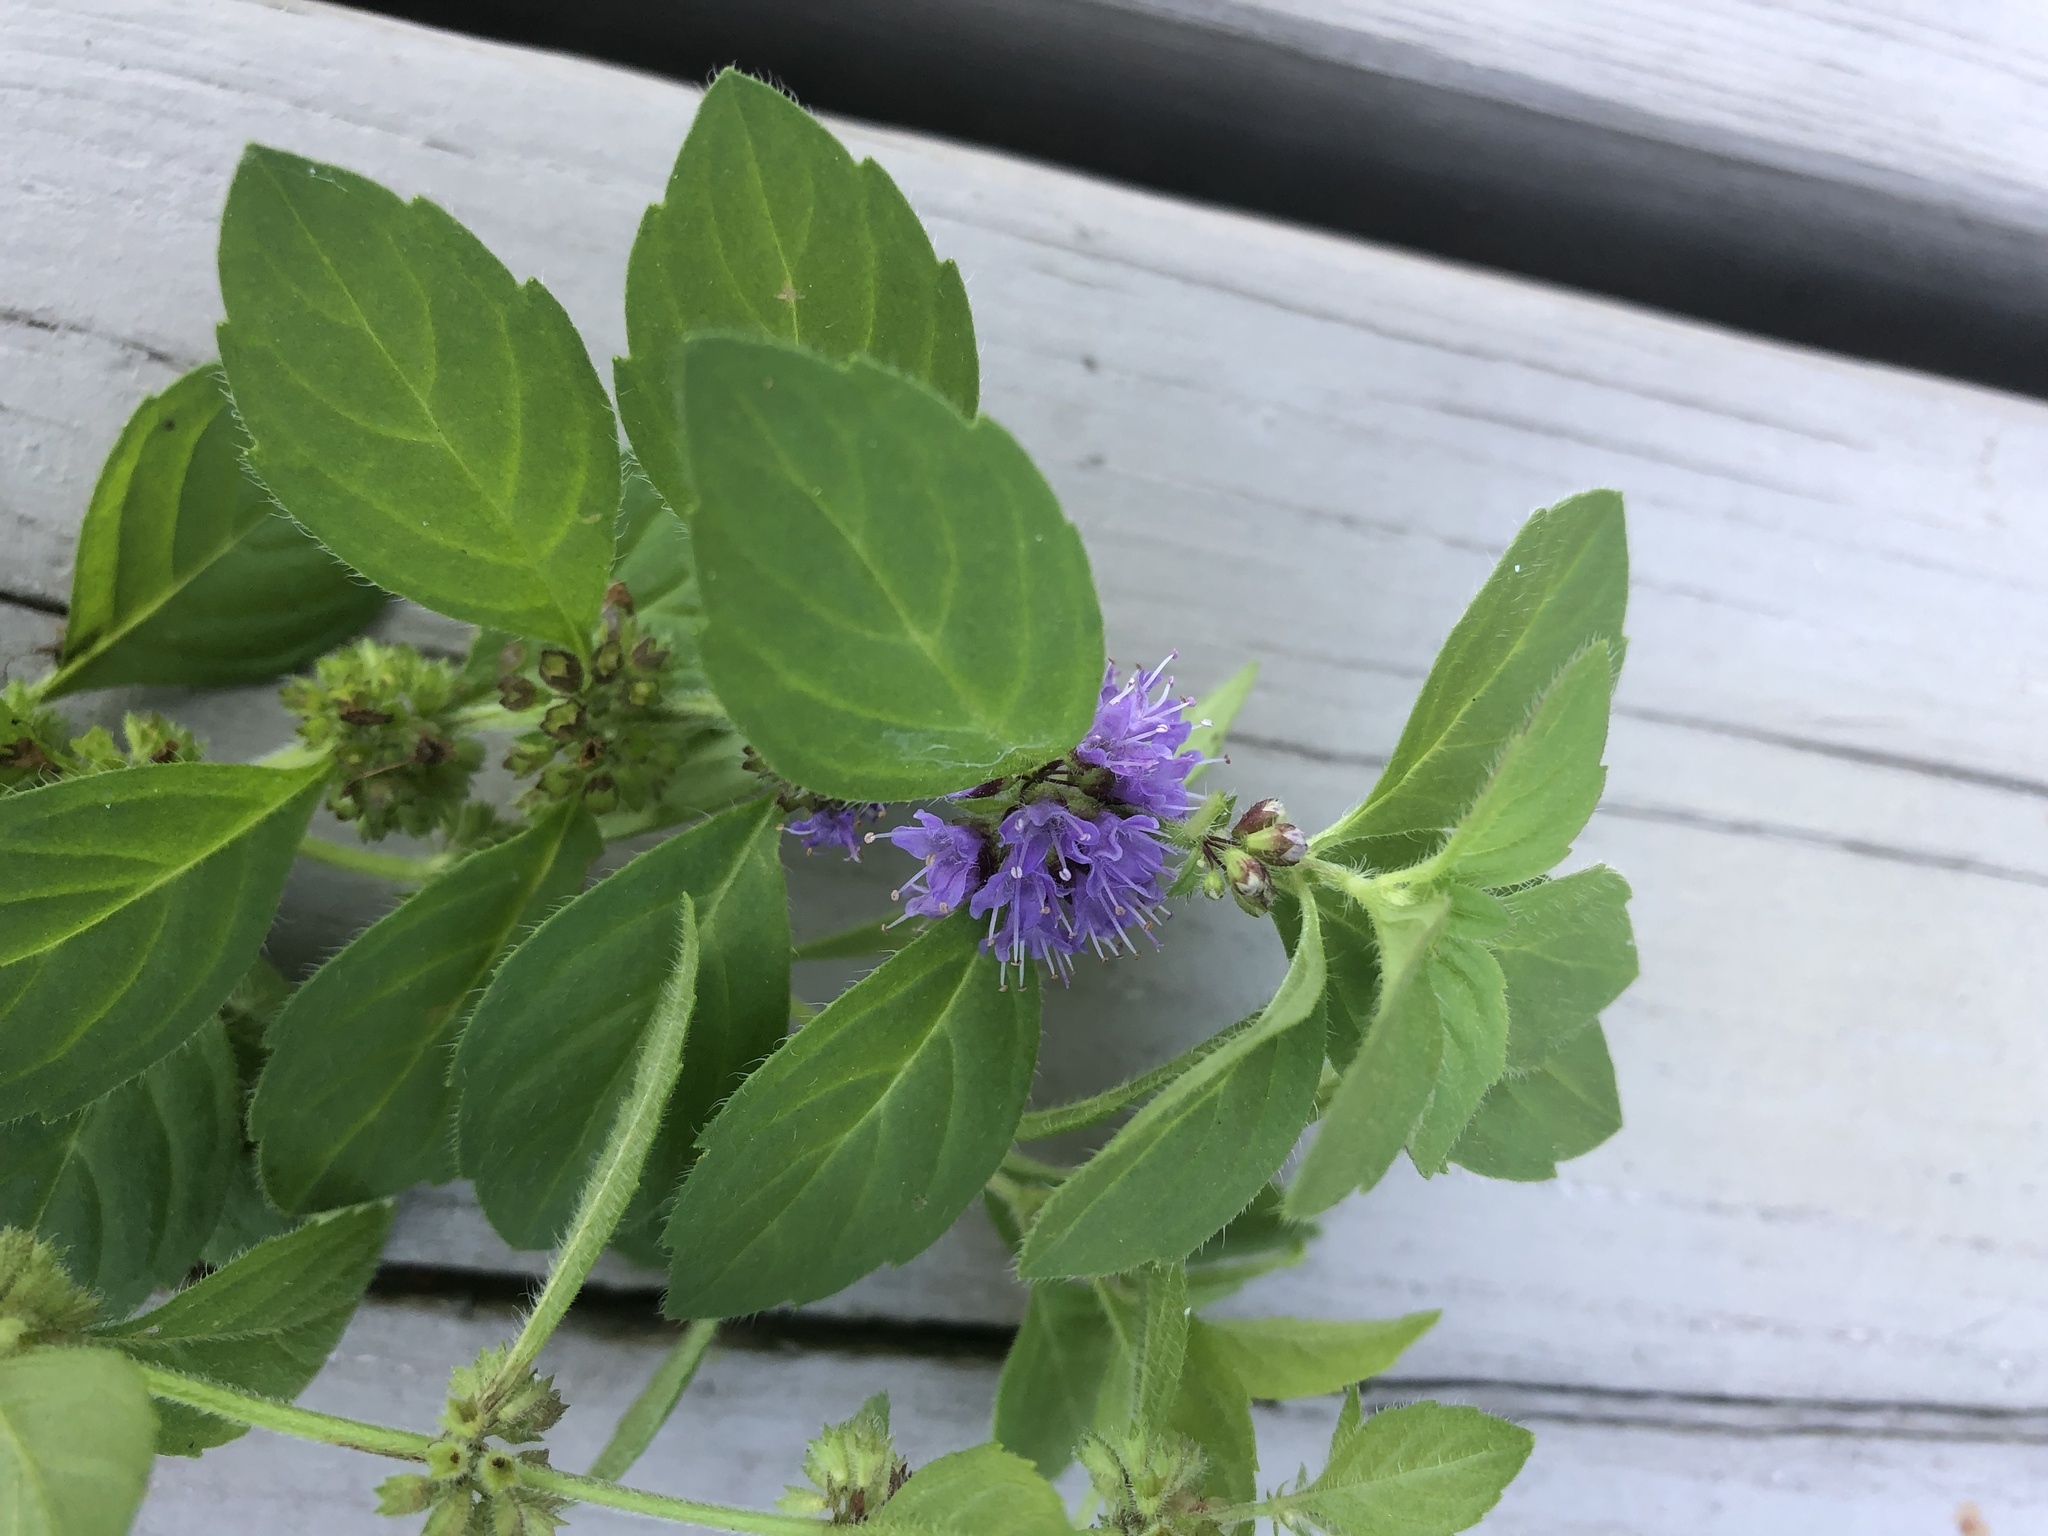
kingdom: Plantae
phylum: Tracheophyta
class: Magnoliopsida
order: Lamiales
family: Lamiaceae
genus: Mentha
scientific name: Mentha arvensis
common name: Corn mint
